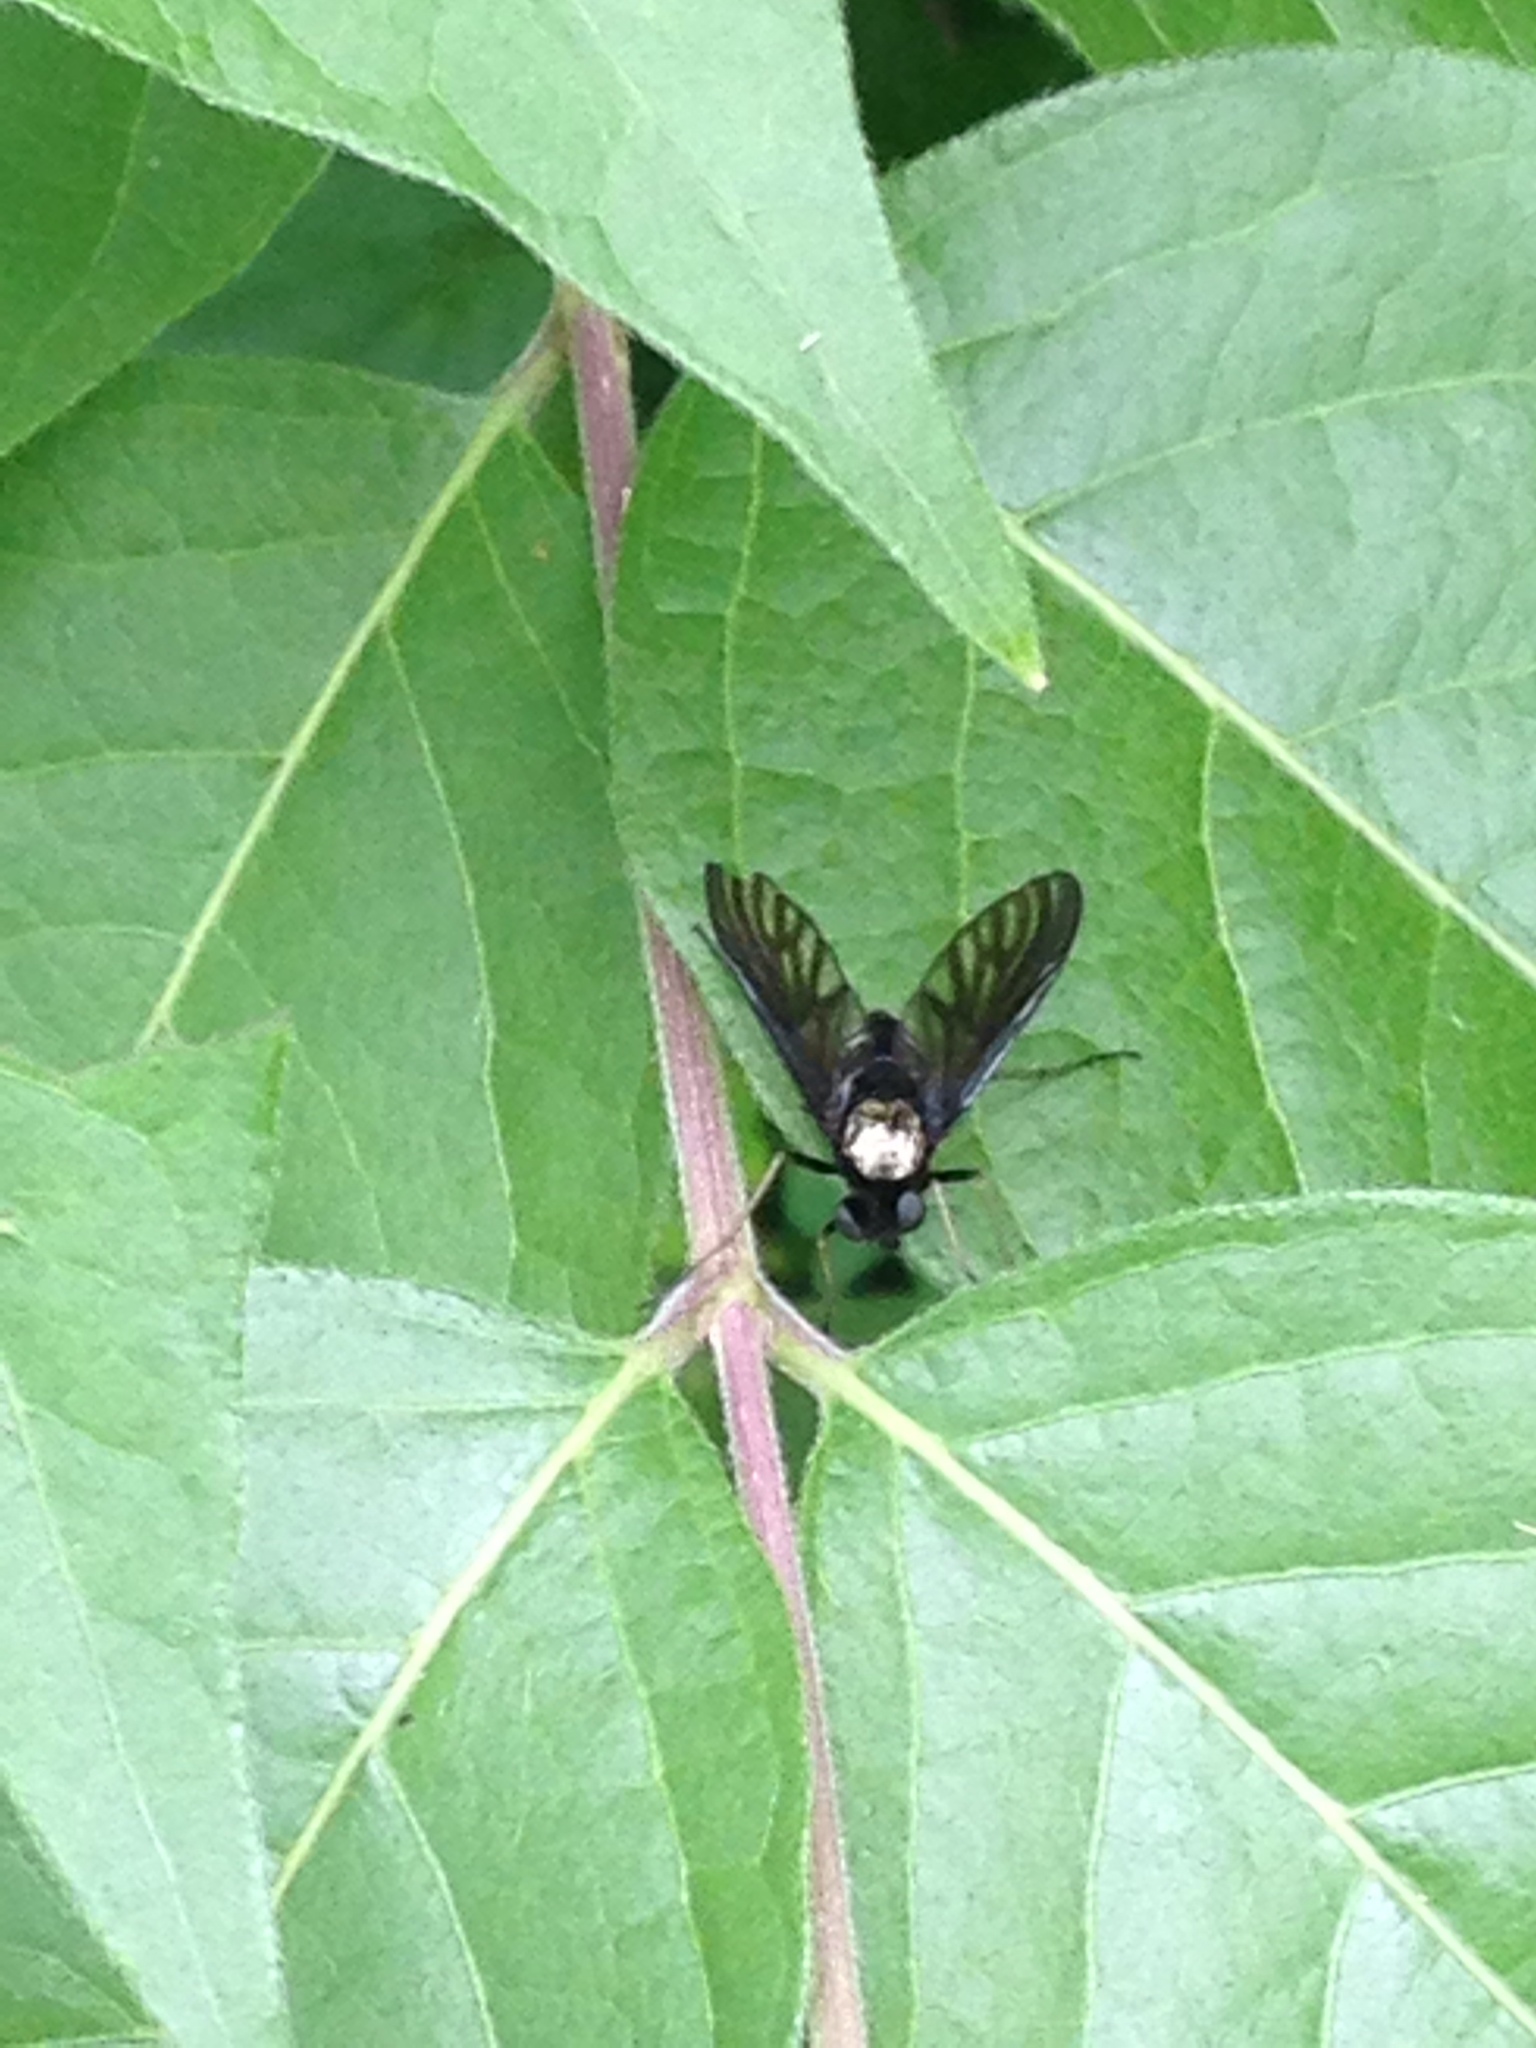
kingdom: Animalia
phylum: Arthropoda
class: Insecta
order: Diptera
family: Rhagionidae
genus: Chrysopilus
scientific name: Chrysopilus thoracicus
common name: Golden-backed snipe fly
